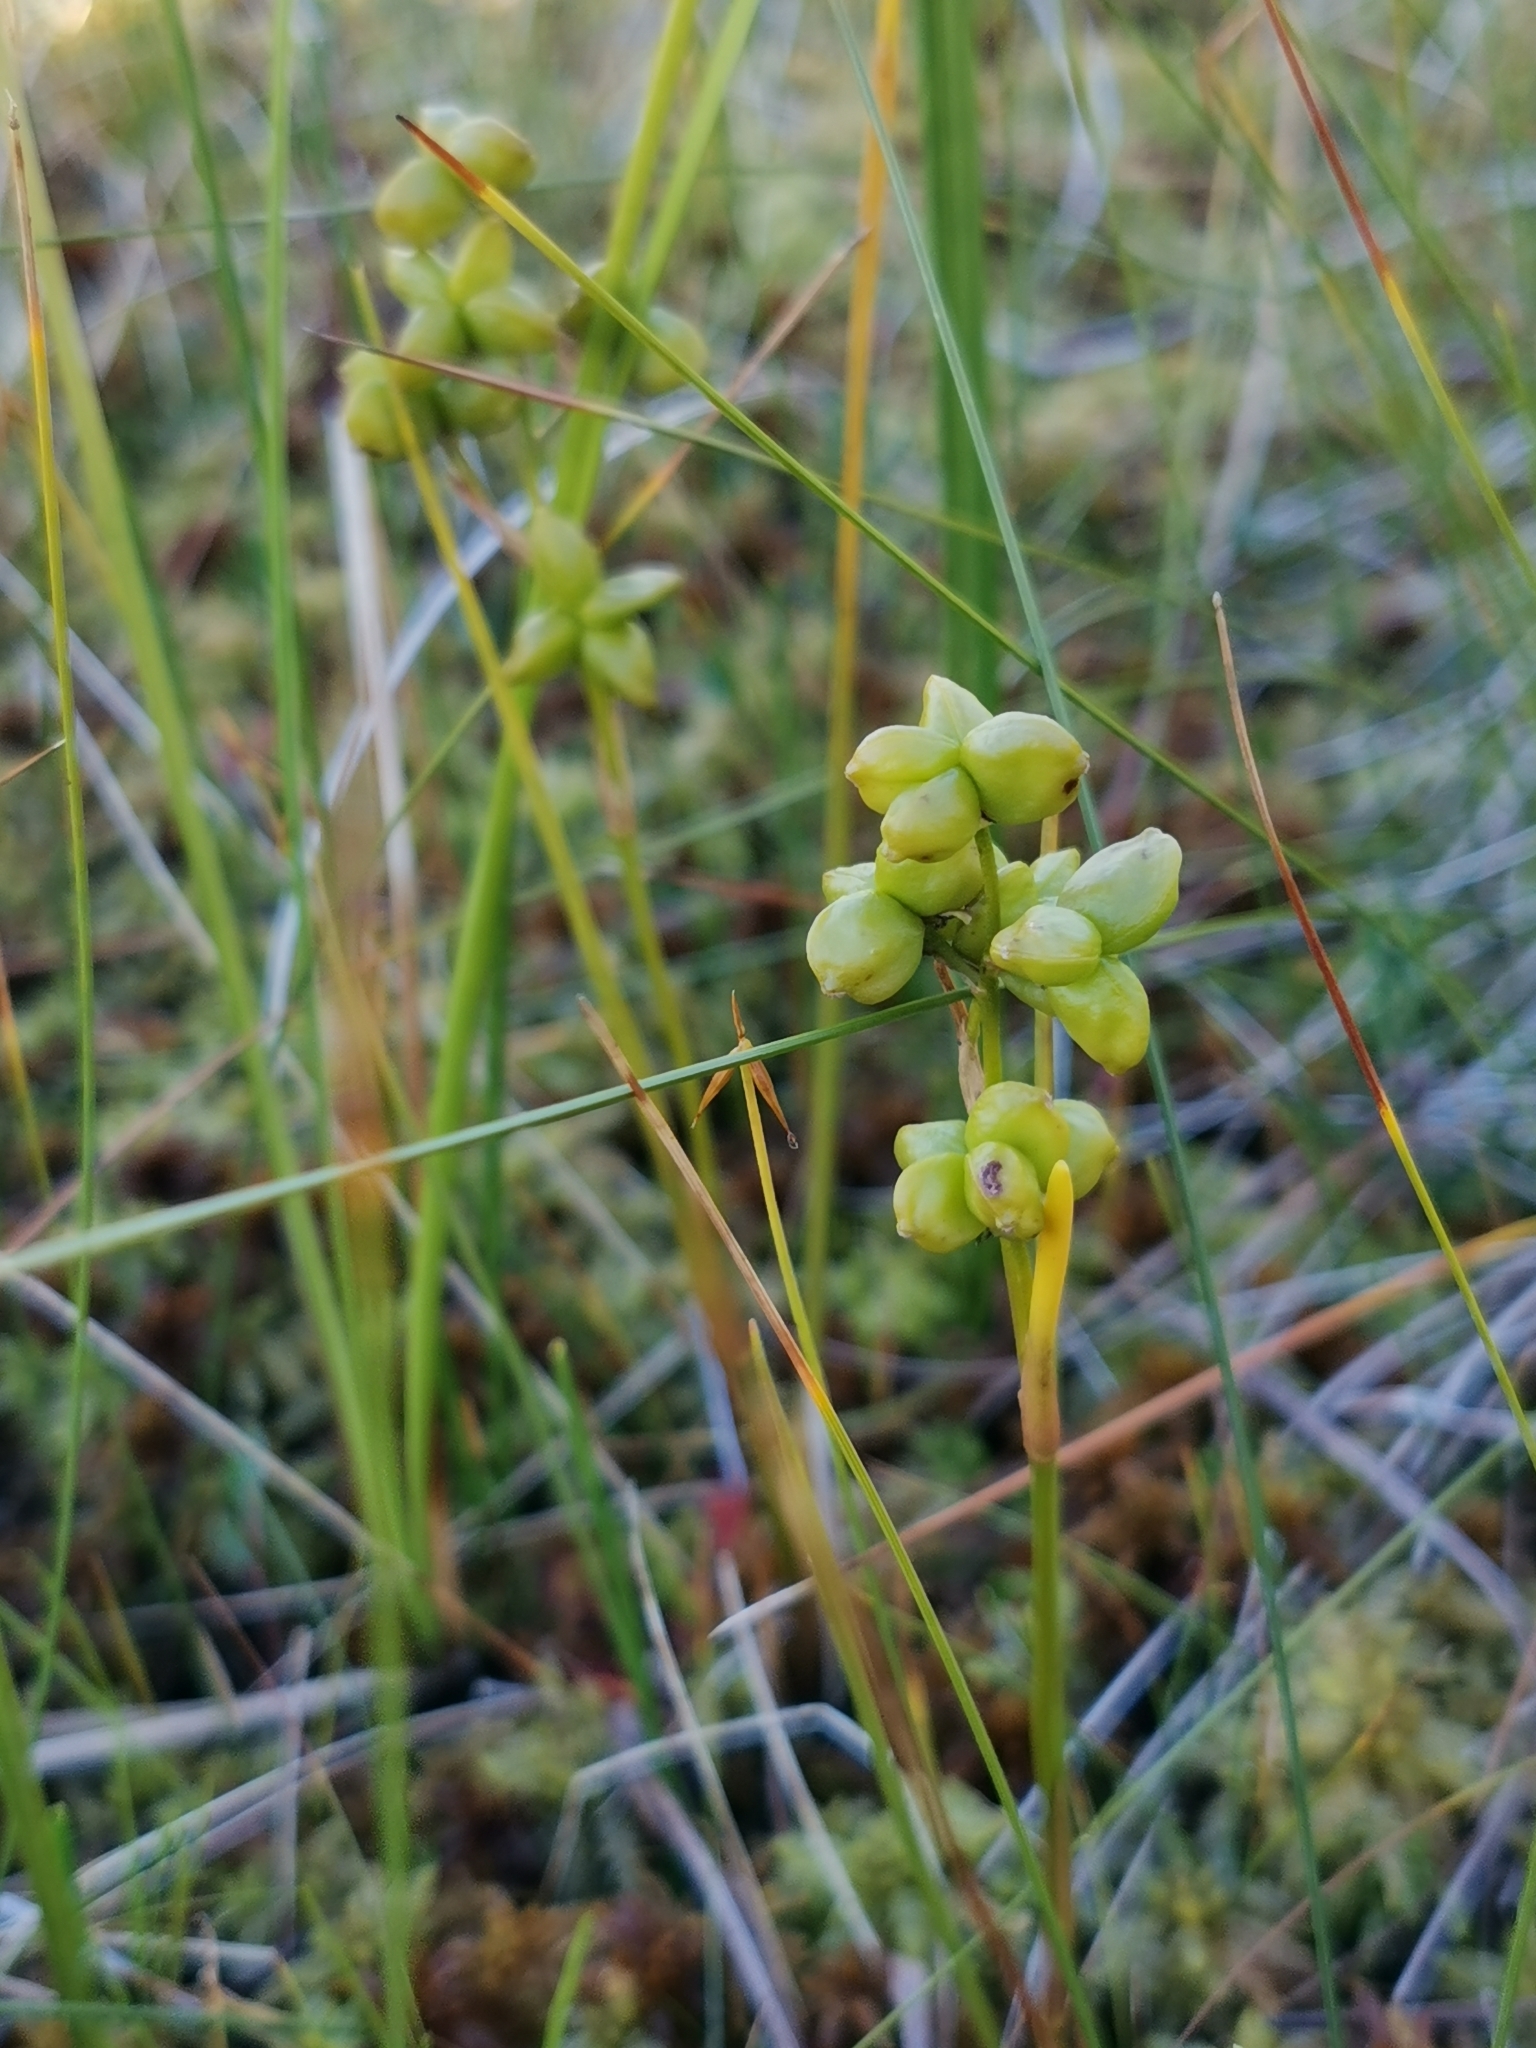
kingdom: Plantae
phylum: Tracheophyta
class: Liliopsida
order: Alismatales
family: Scheuchzeriaceae
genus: Scheuchzeria
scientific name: Scheuchzeria palustris
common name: Rannoch-rush
